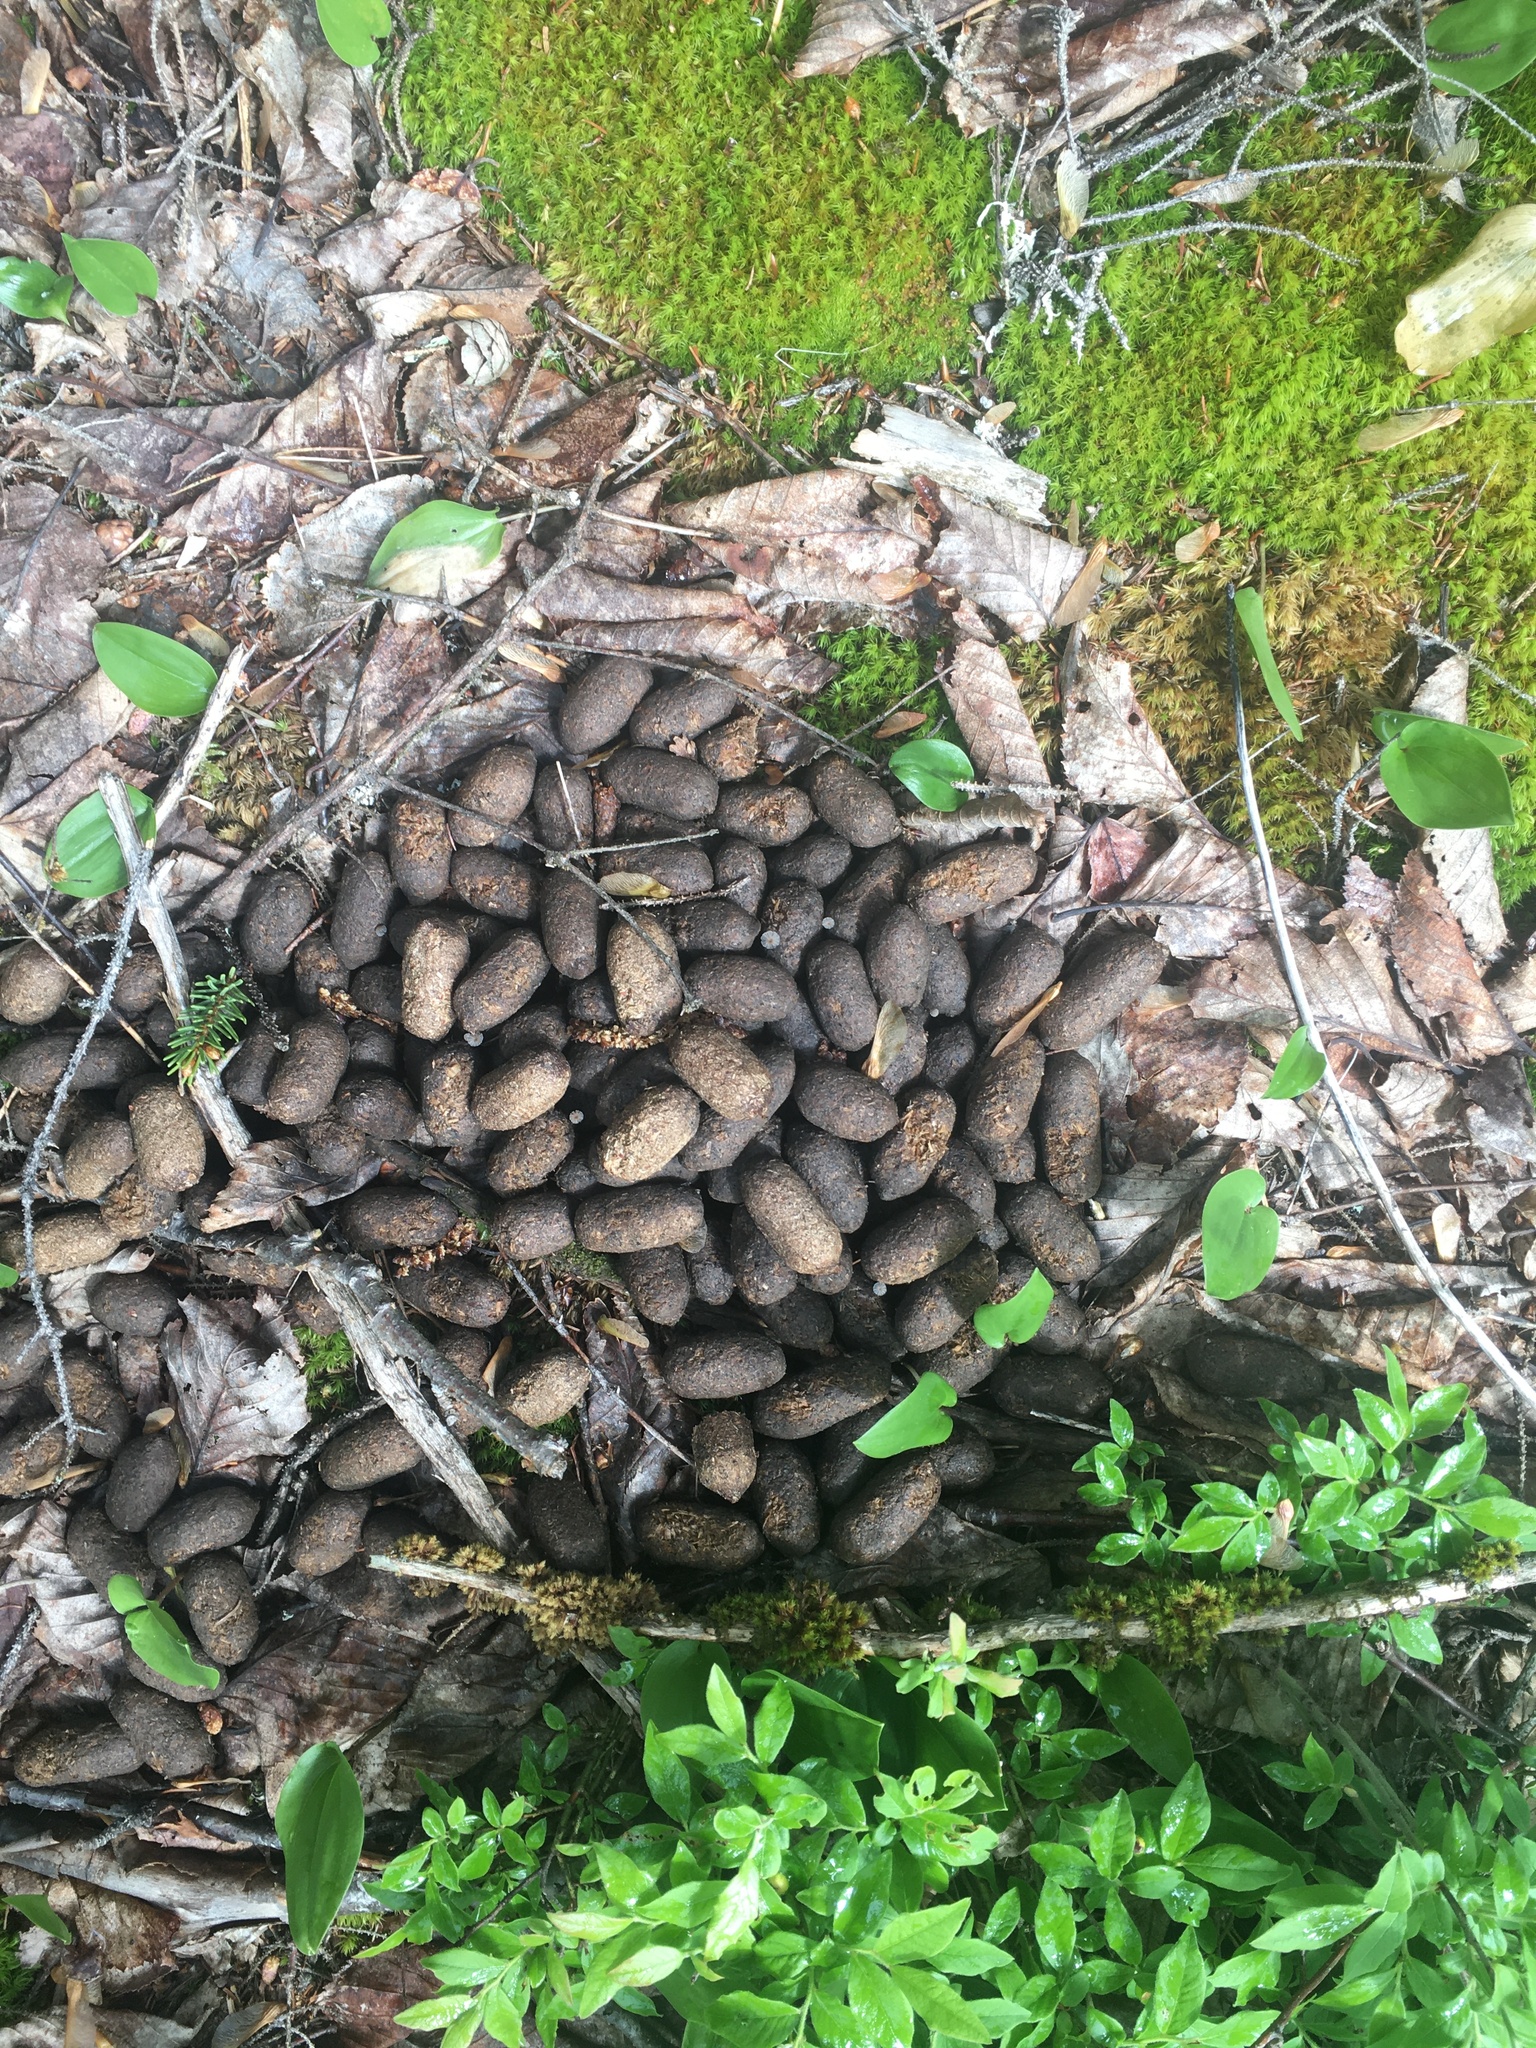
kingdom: Animalia
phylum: Chordata
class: Mammalia
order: Artiodactyla
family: Cervidae
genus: Alces
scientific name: Alces alces
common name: Moose
